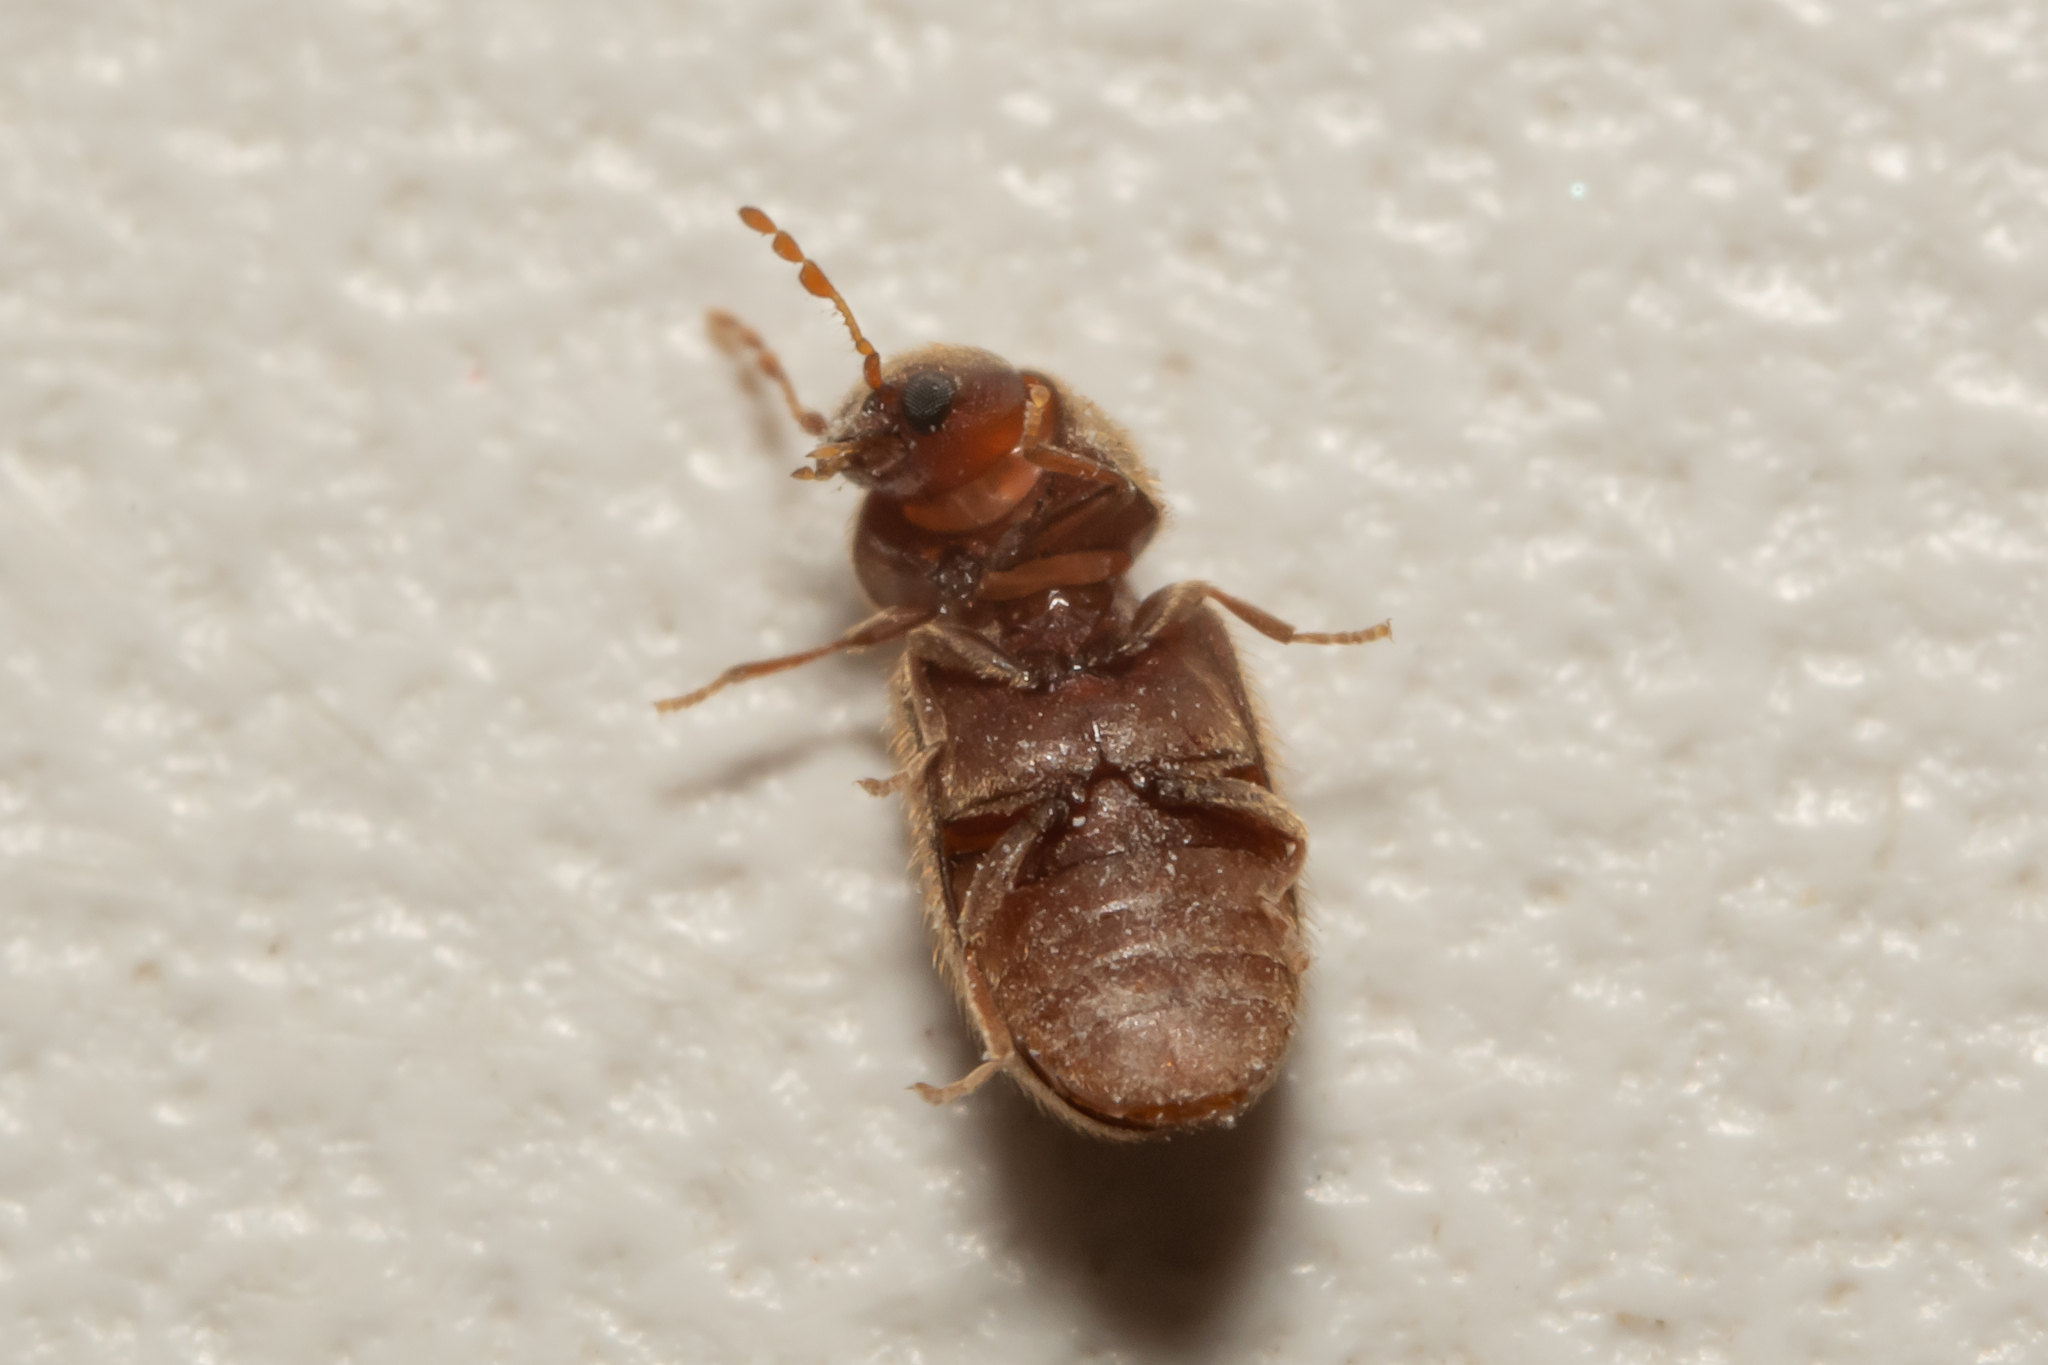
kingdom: Animalia
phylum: Arthropoda
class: Insecta
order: Coleoptera
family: Anobiidae
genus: Stegobium
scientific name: Stegobium paniceum
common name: Drugstore beetle
